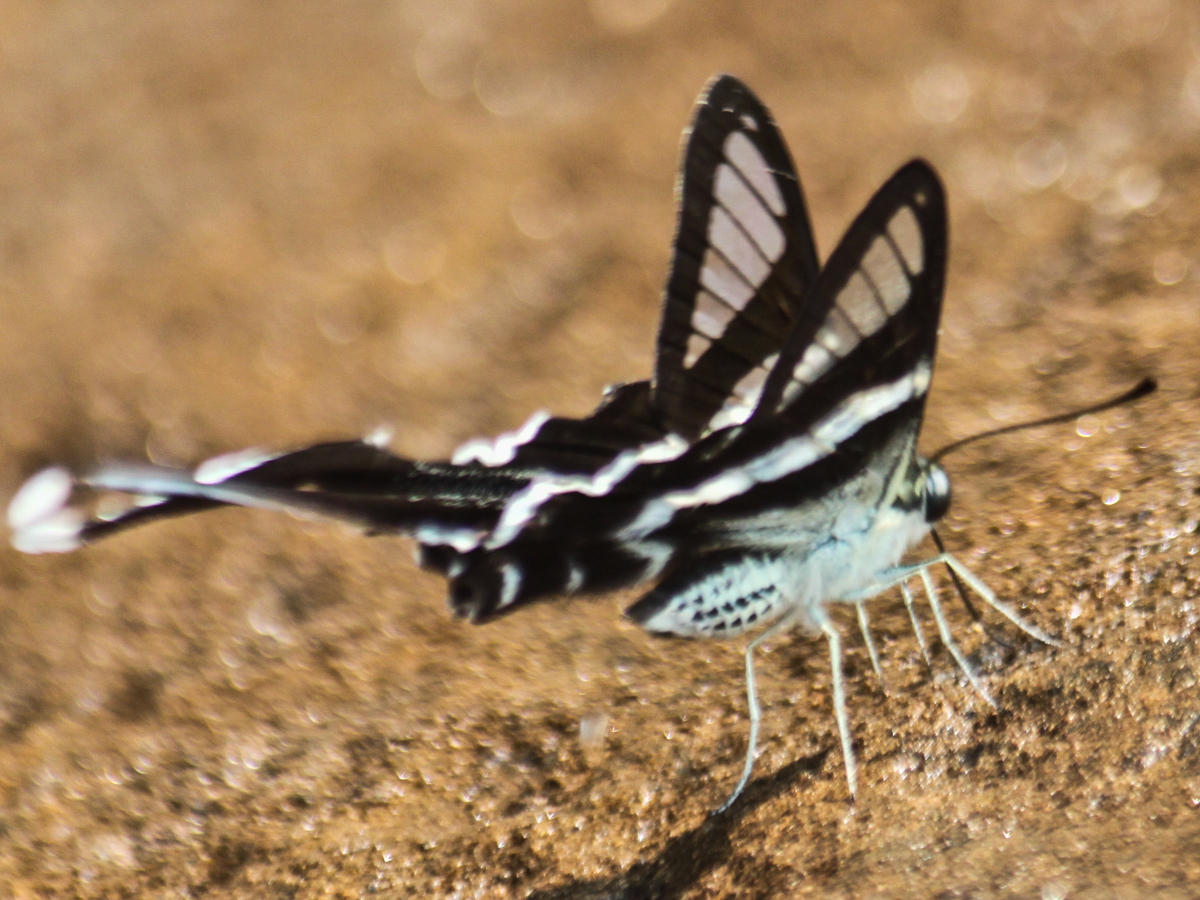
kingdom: Animalia
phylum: Arthropoda
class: Insecta
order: Lepidoptera
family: Papilionidae
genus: Lamproptera
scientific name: Lamproptera curius
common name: White dragontail
